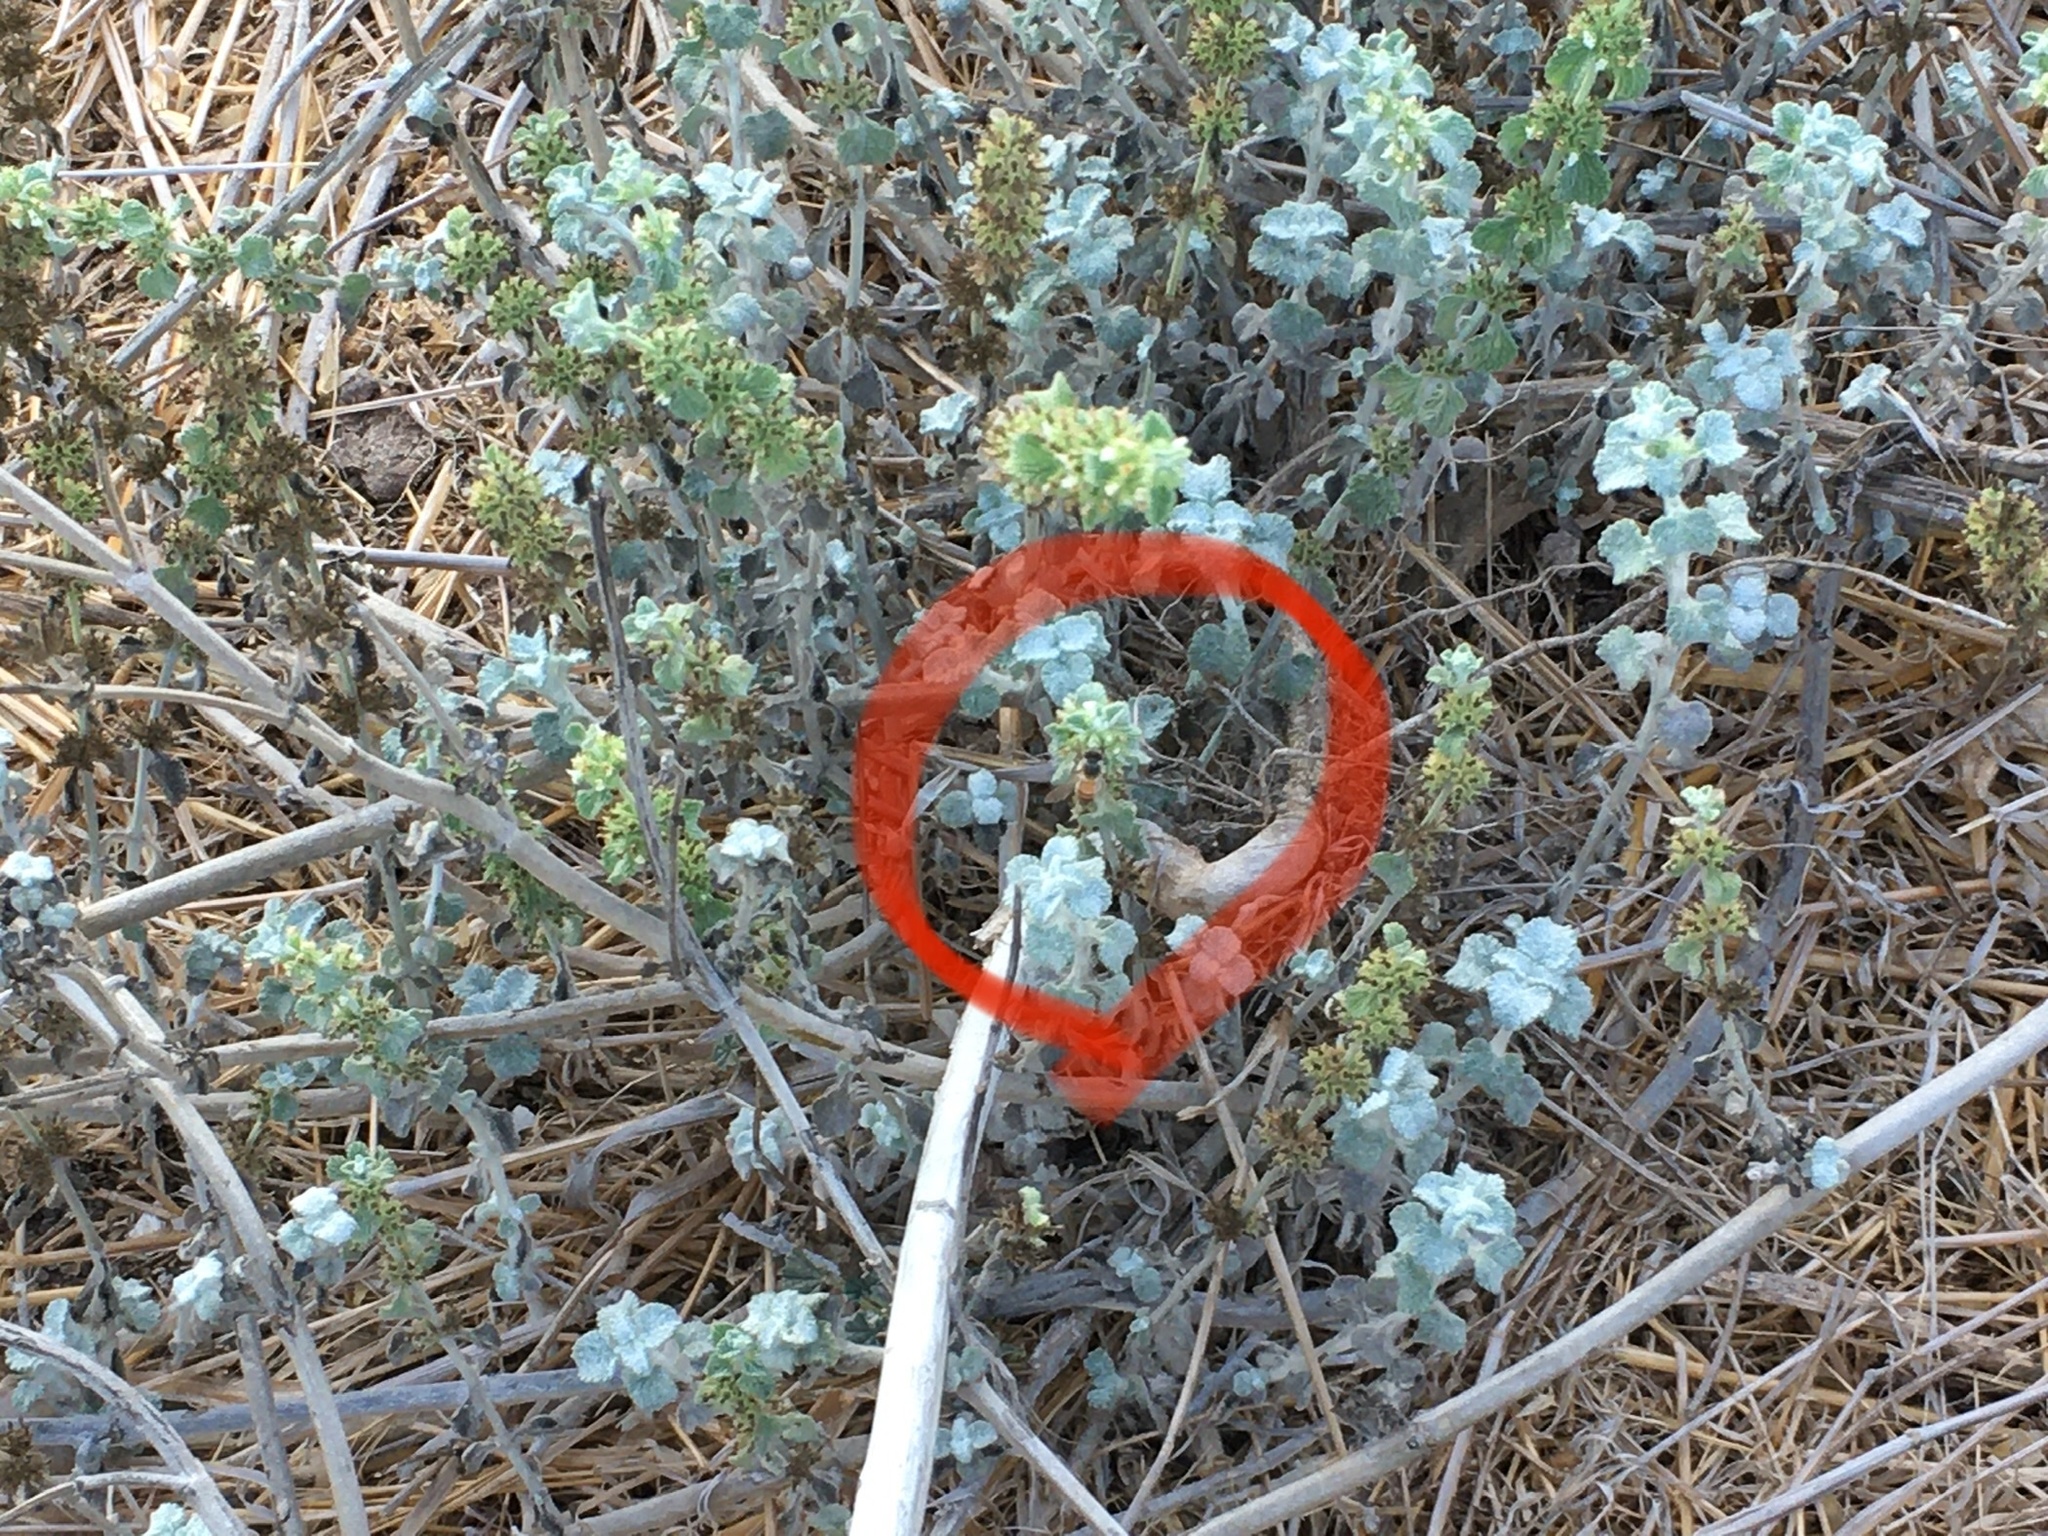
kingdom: Animalia
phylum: Arthropoda
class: Insecta
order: Hymenoptera
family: Apidae
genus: Apis
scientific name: Apis mellifera
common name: Honey bee
